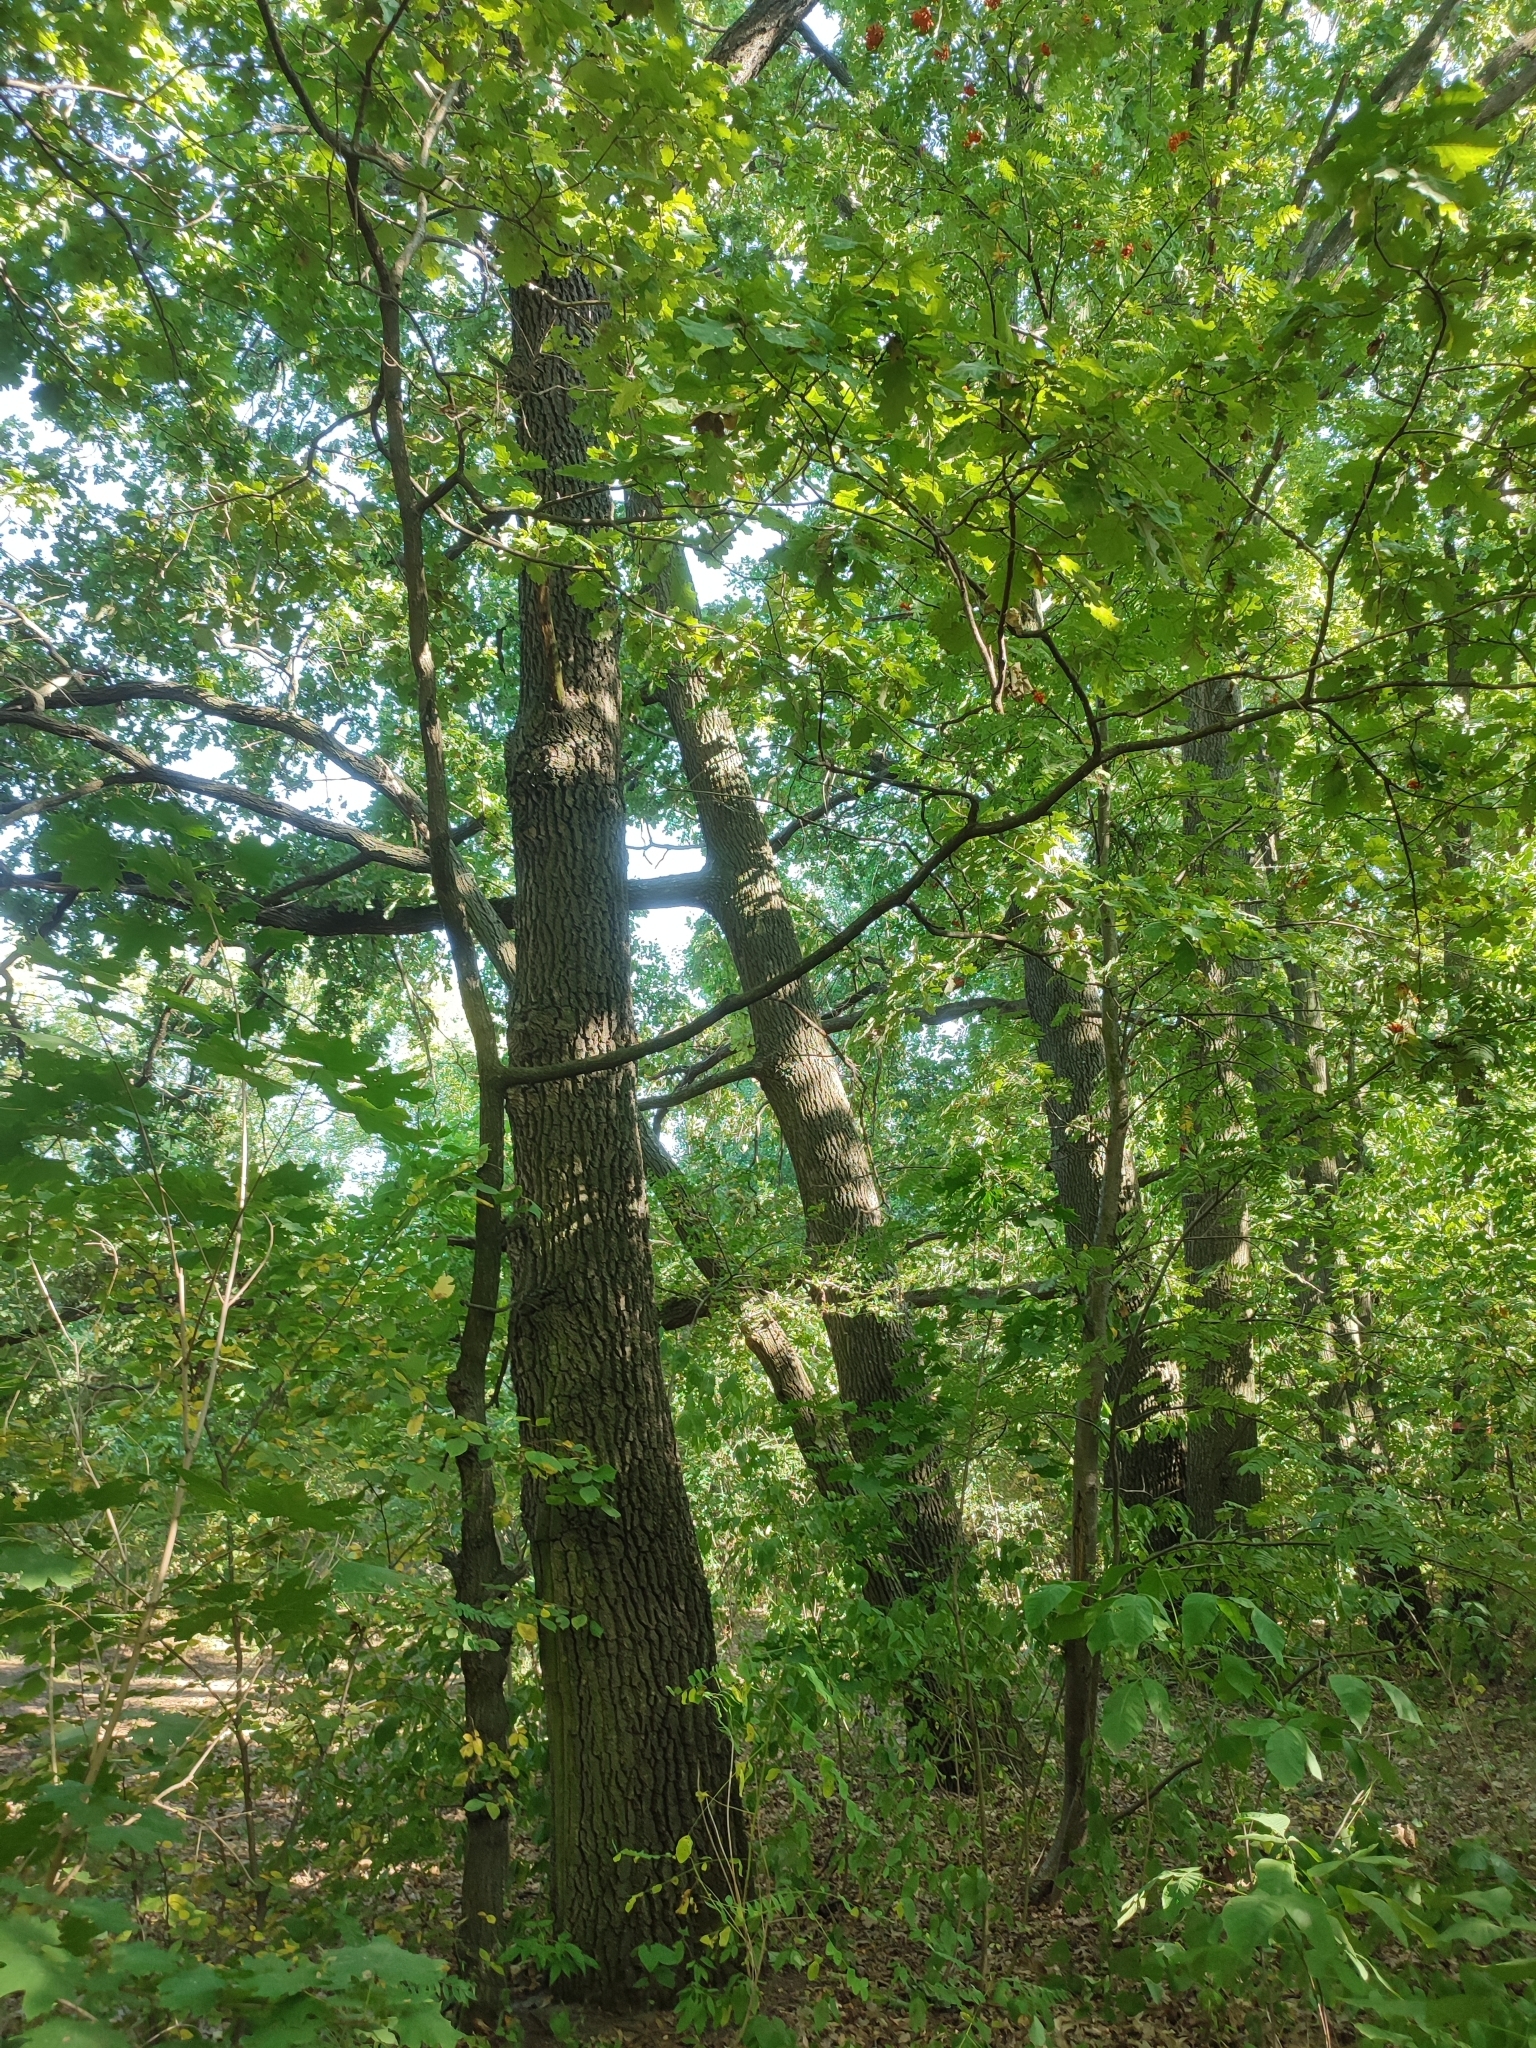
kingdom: Plantae
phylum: Tracheophyta
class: Magnoliopsida
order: Fagales
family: Fagaceae
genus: Quercus
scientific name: Quercus robur
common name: Pedunculate oak
